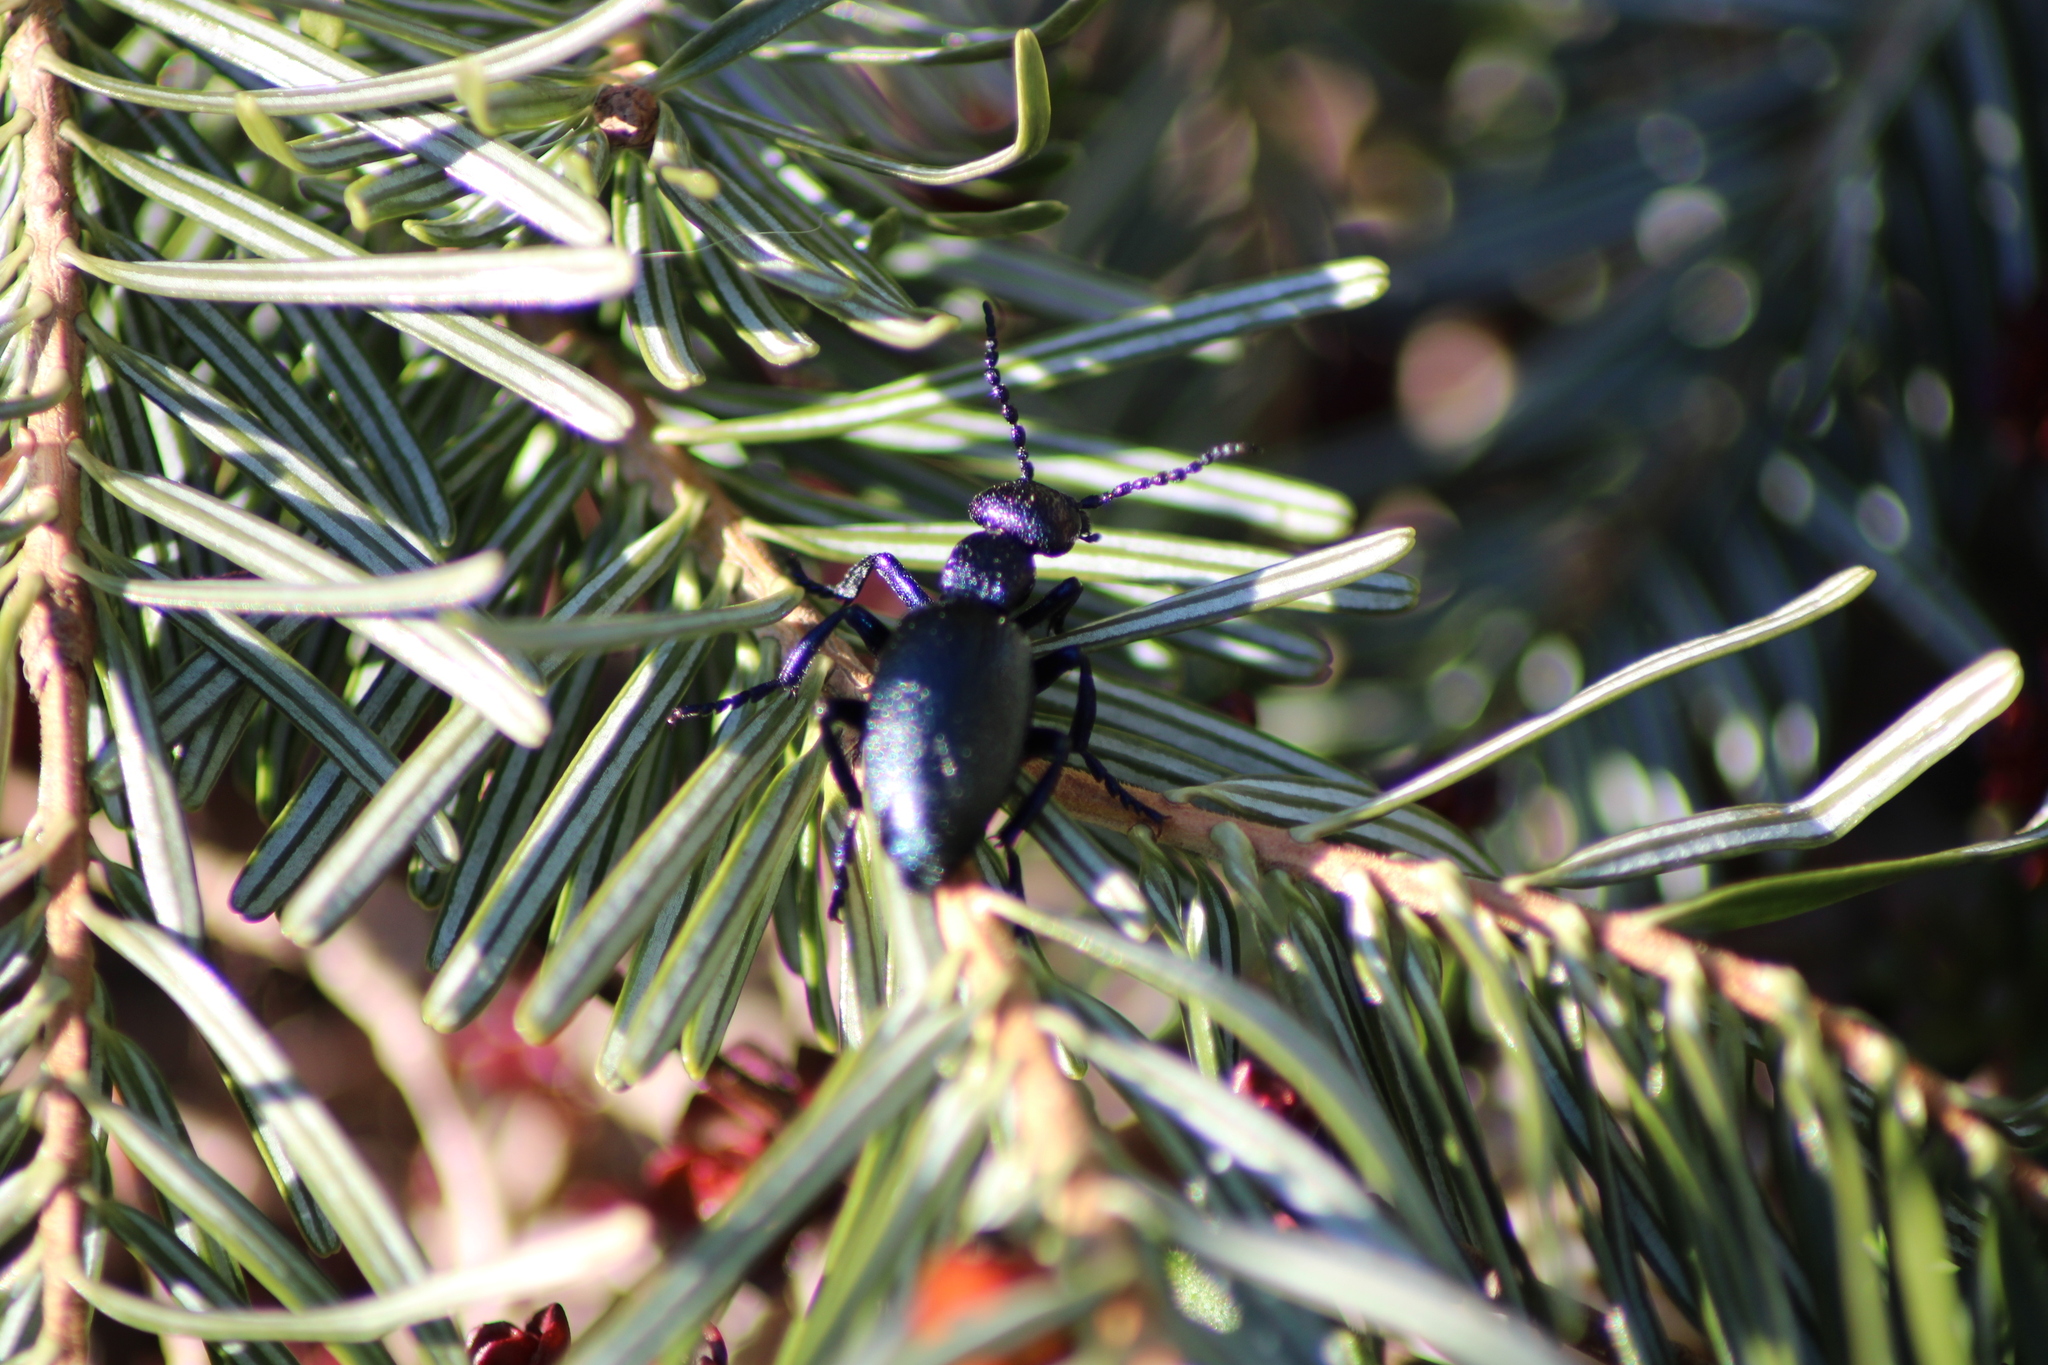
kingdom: Animalia
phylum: Arthropoda
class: Insecta
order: Coleoptera
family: Meloidae
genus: Meloe
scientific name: Meloe proscarabaeus
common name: Black oil-beetle
